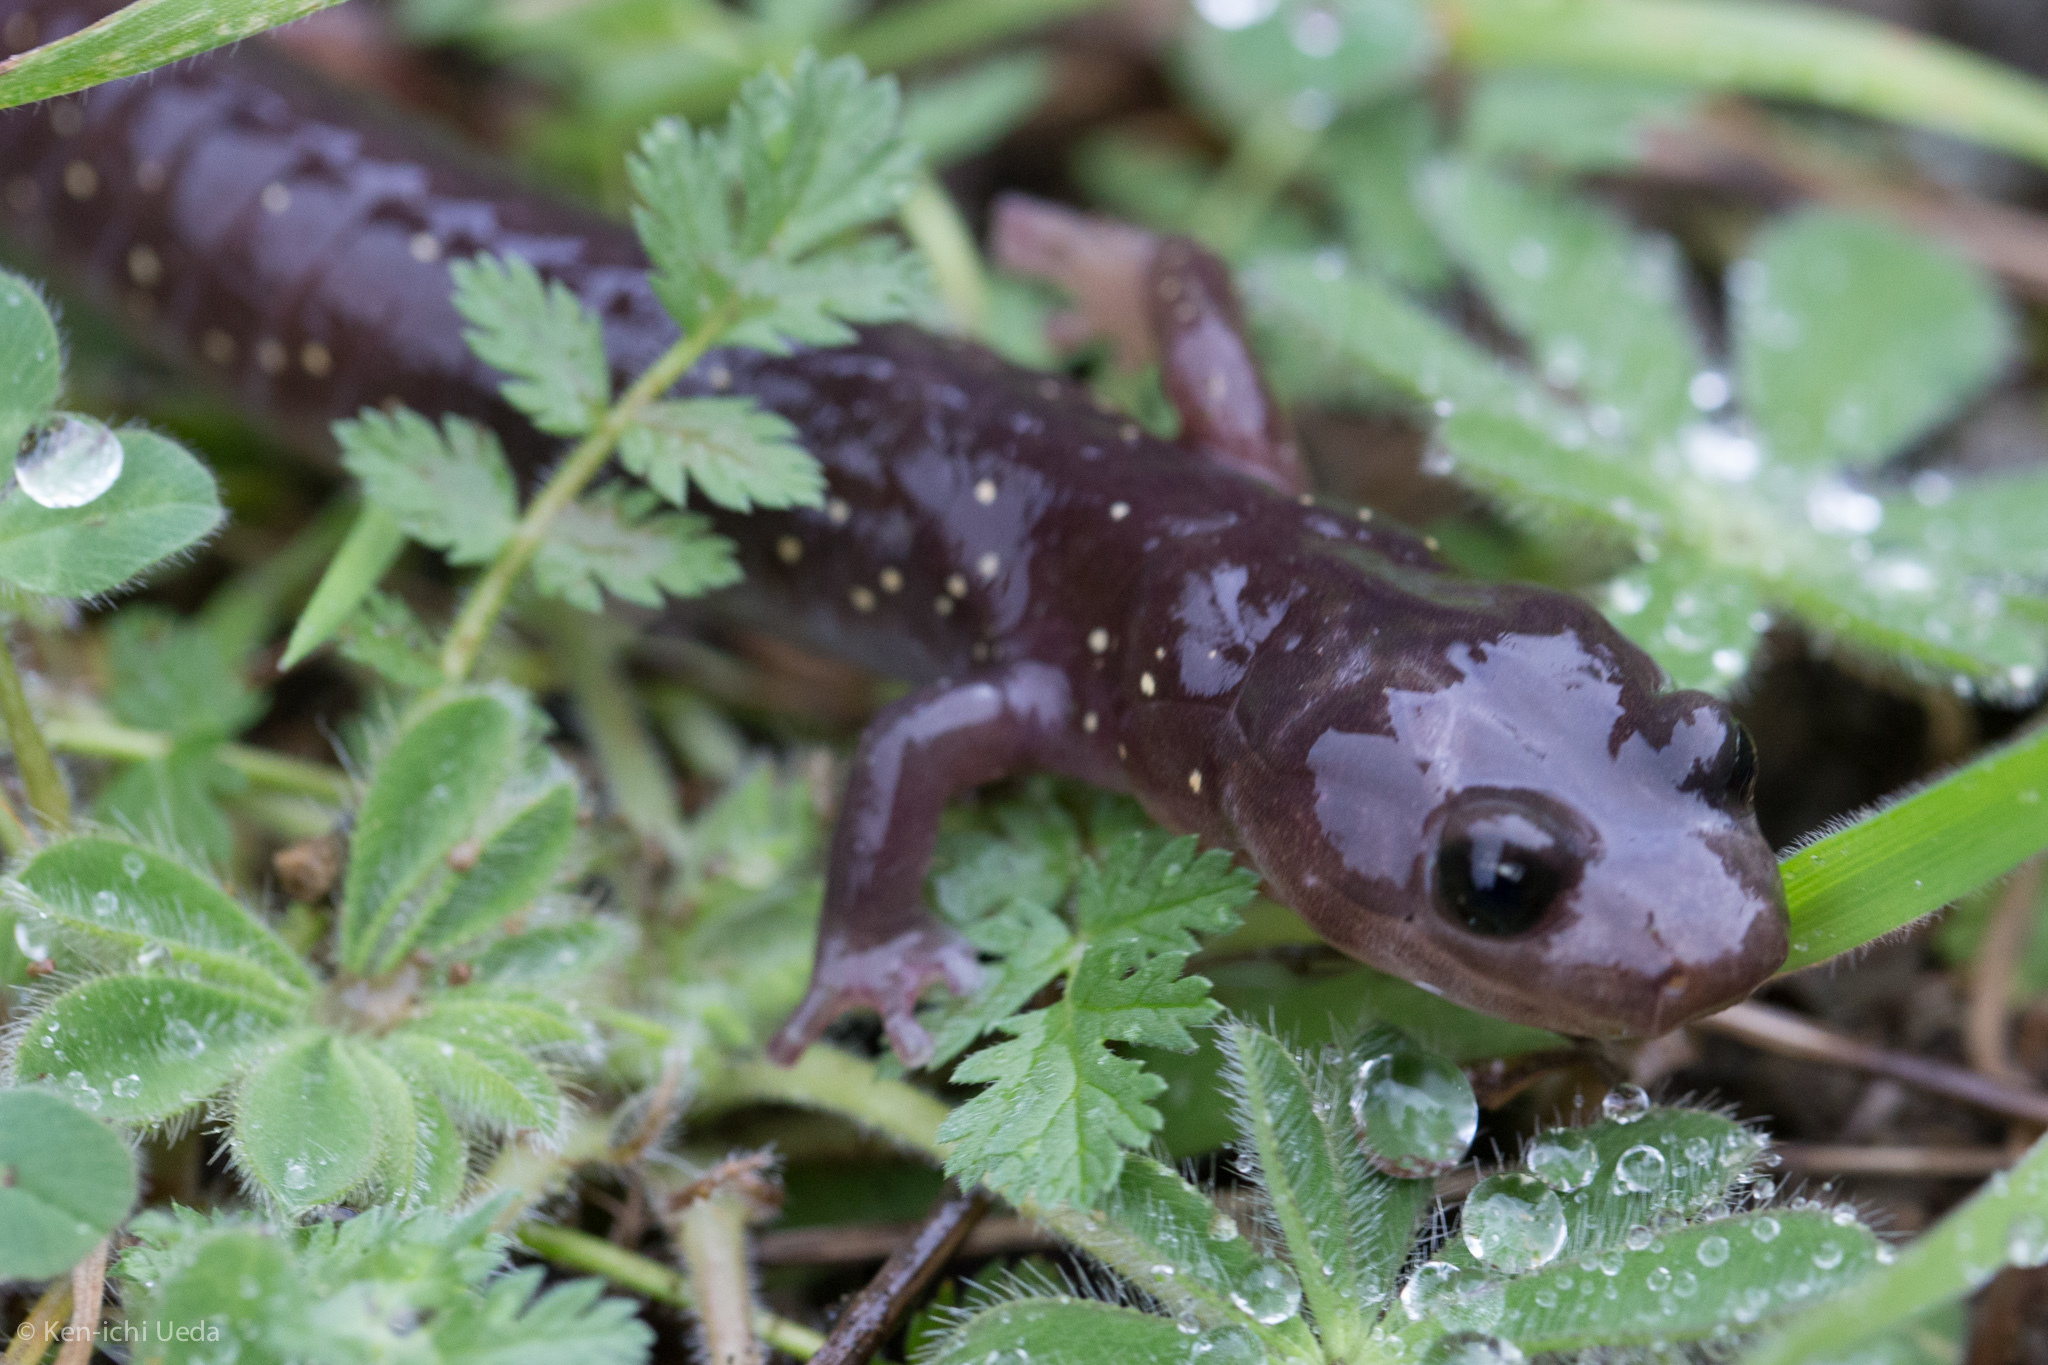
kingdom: Animalia
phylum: Chordata
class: Amphibia
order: Caudata
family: Plethodontidae
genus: Aneides
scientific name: Aneides lugubris
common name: Arboreal salamander
